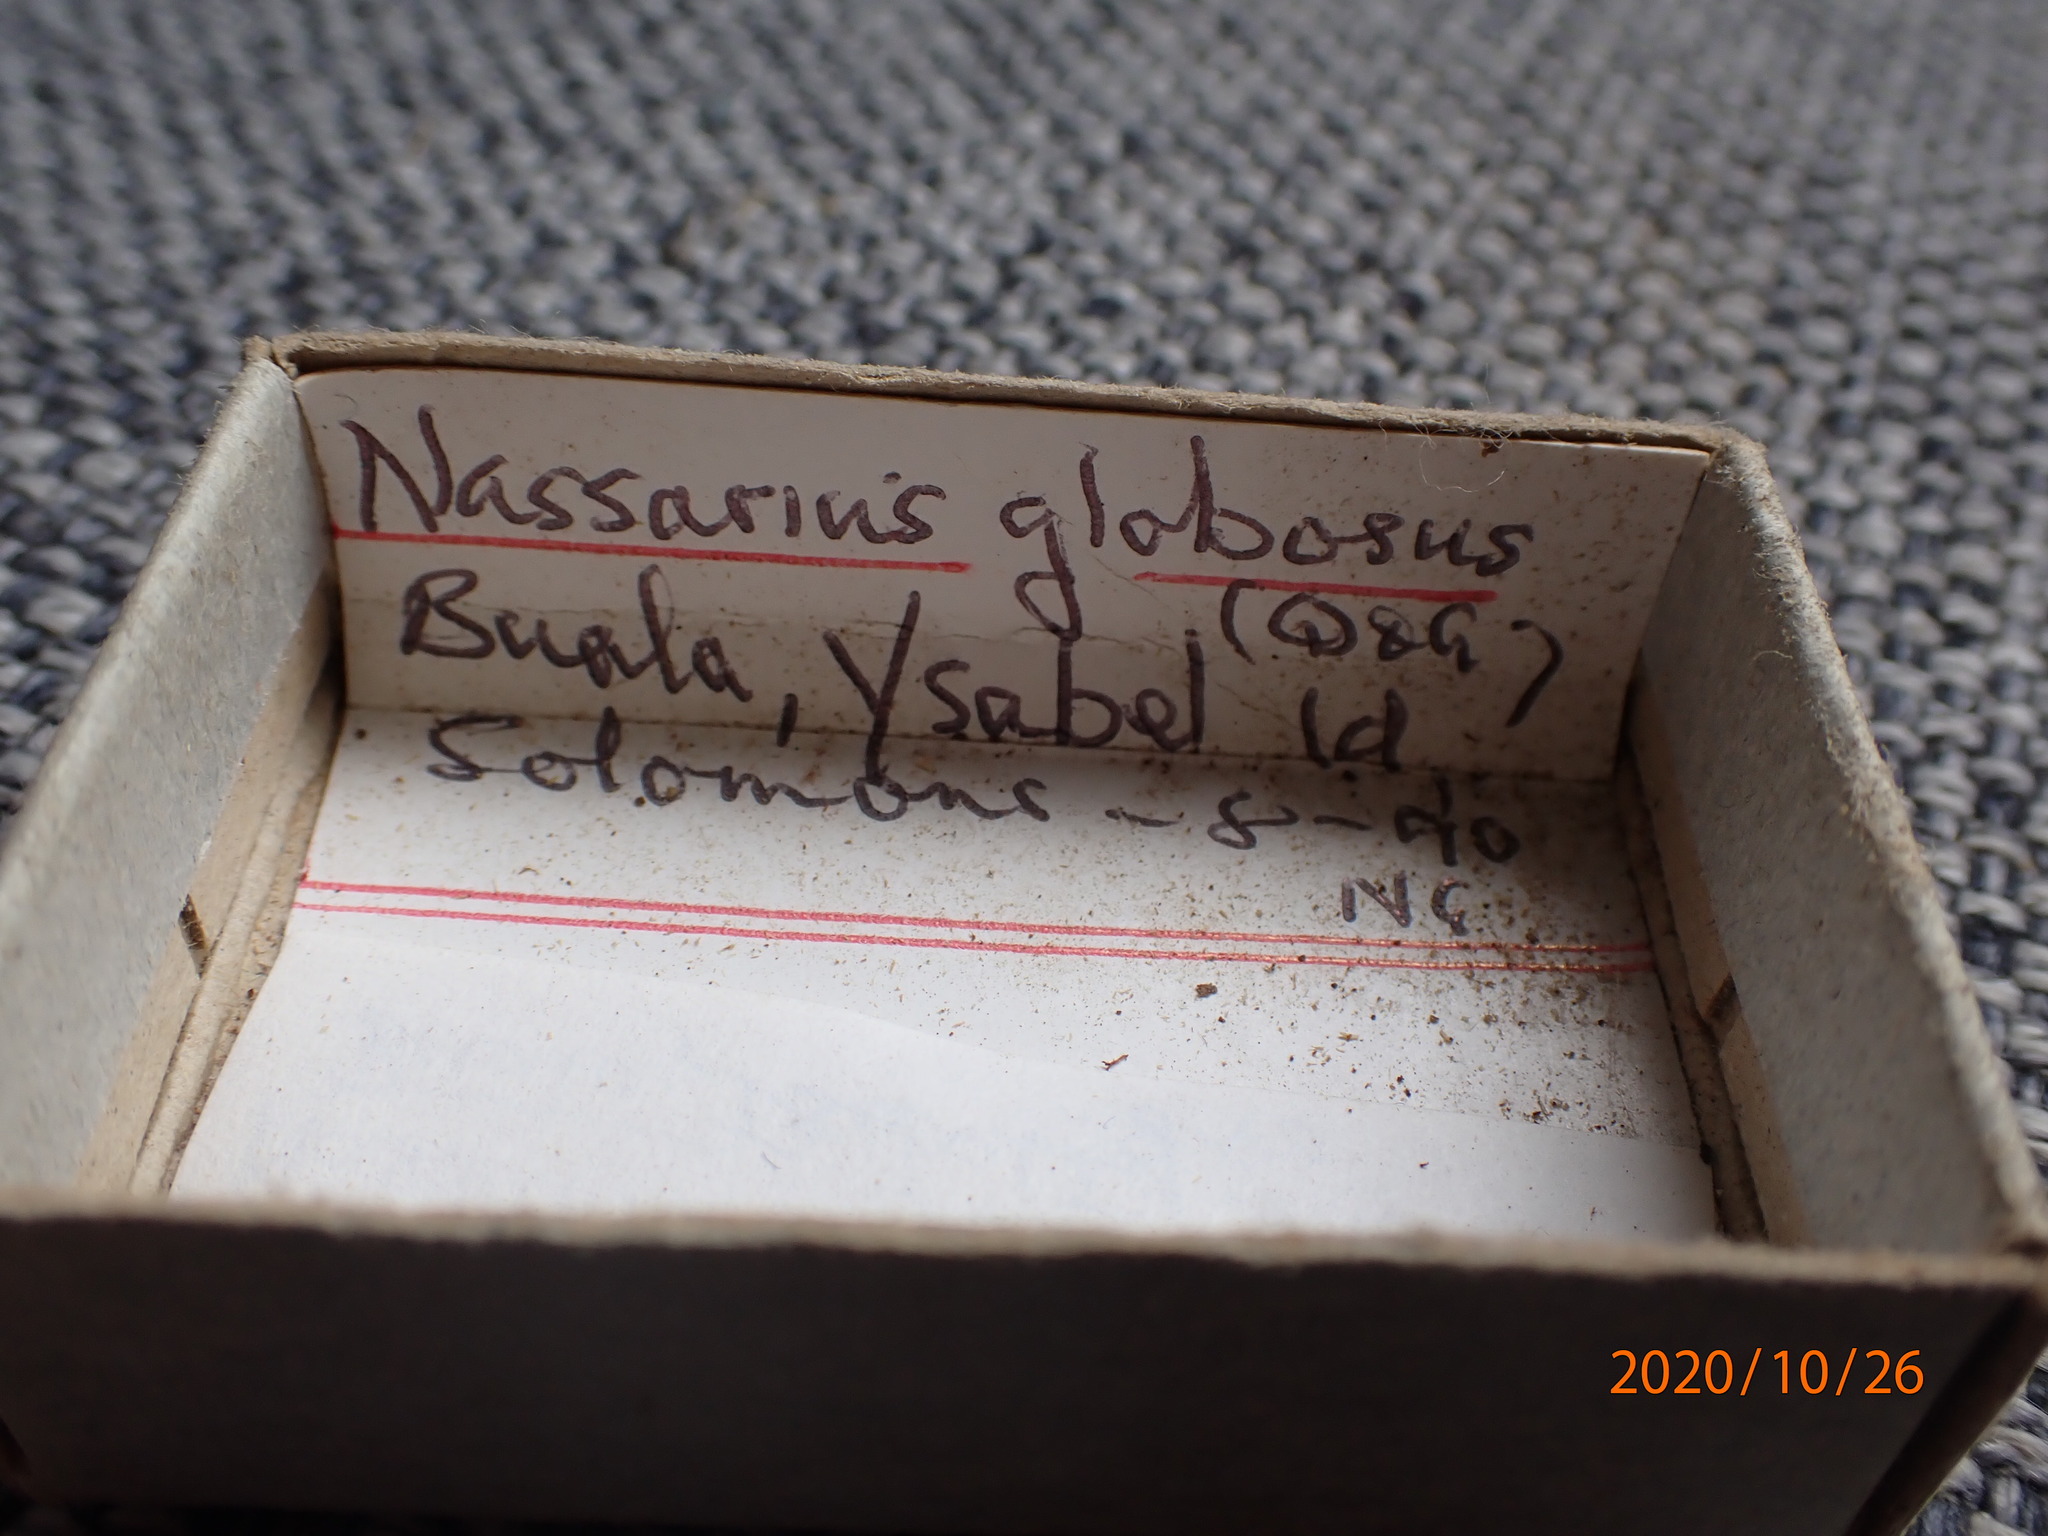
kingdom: Animalia
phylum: Mollusca
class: Gastropoda
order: Neogastropoda
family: Nassariidae
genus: Nassarius
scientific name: Nassarius globosus
